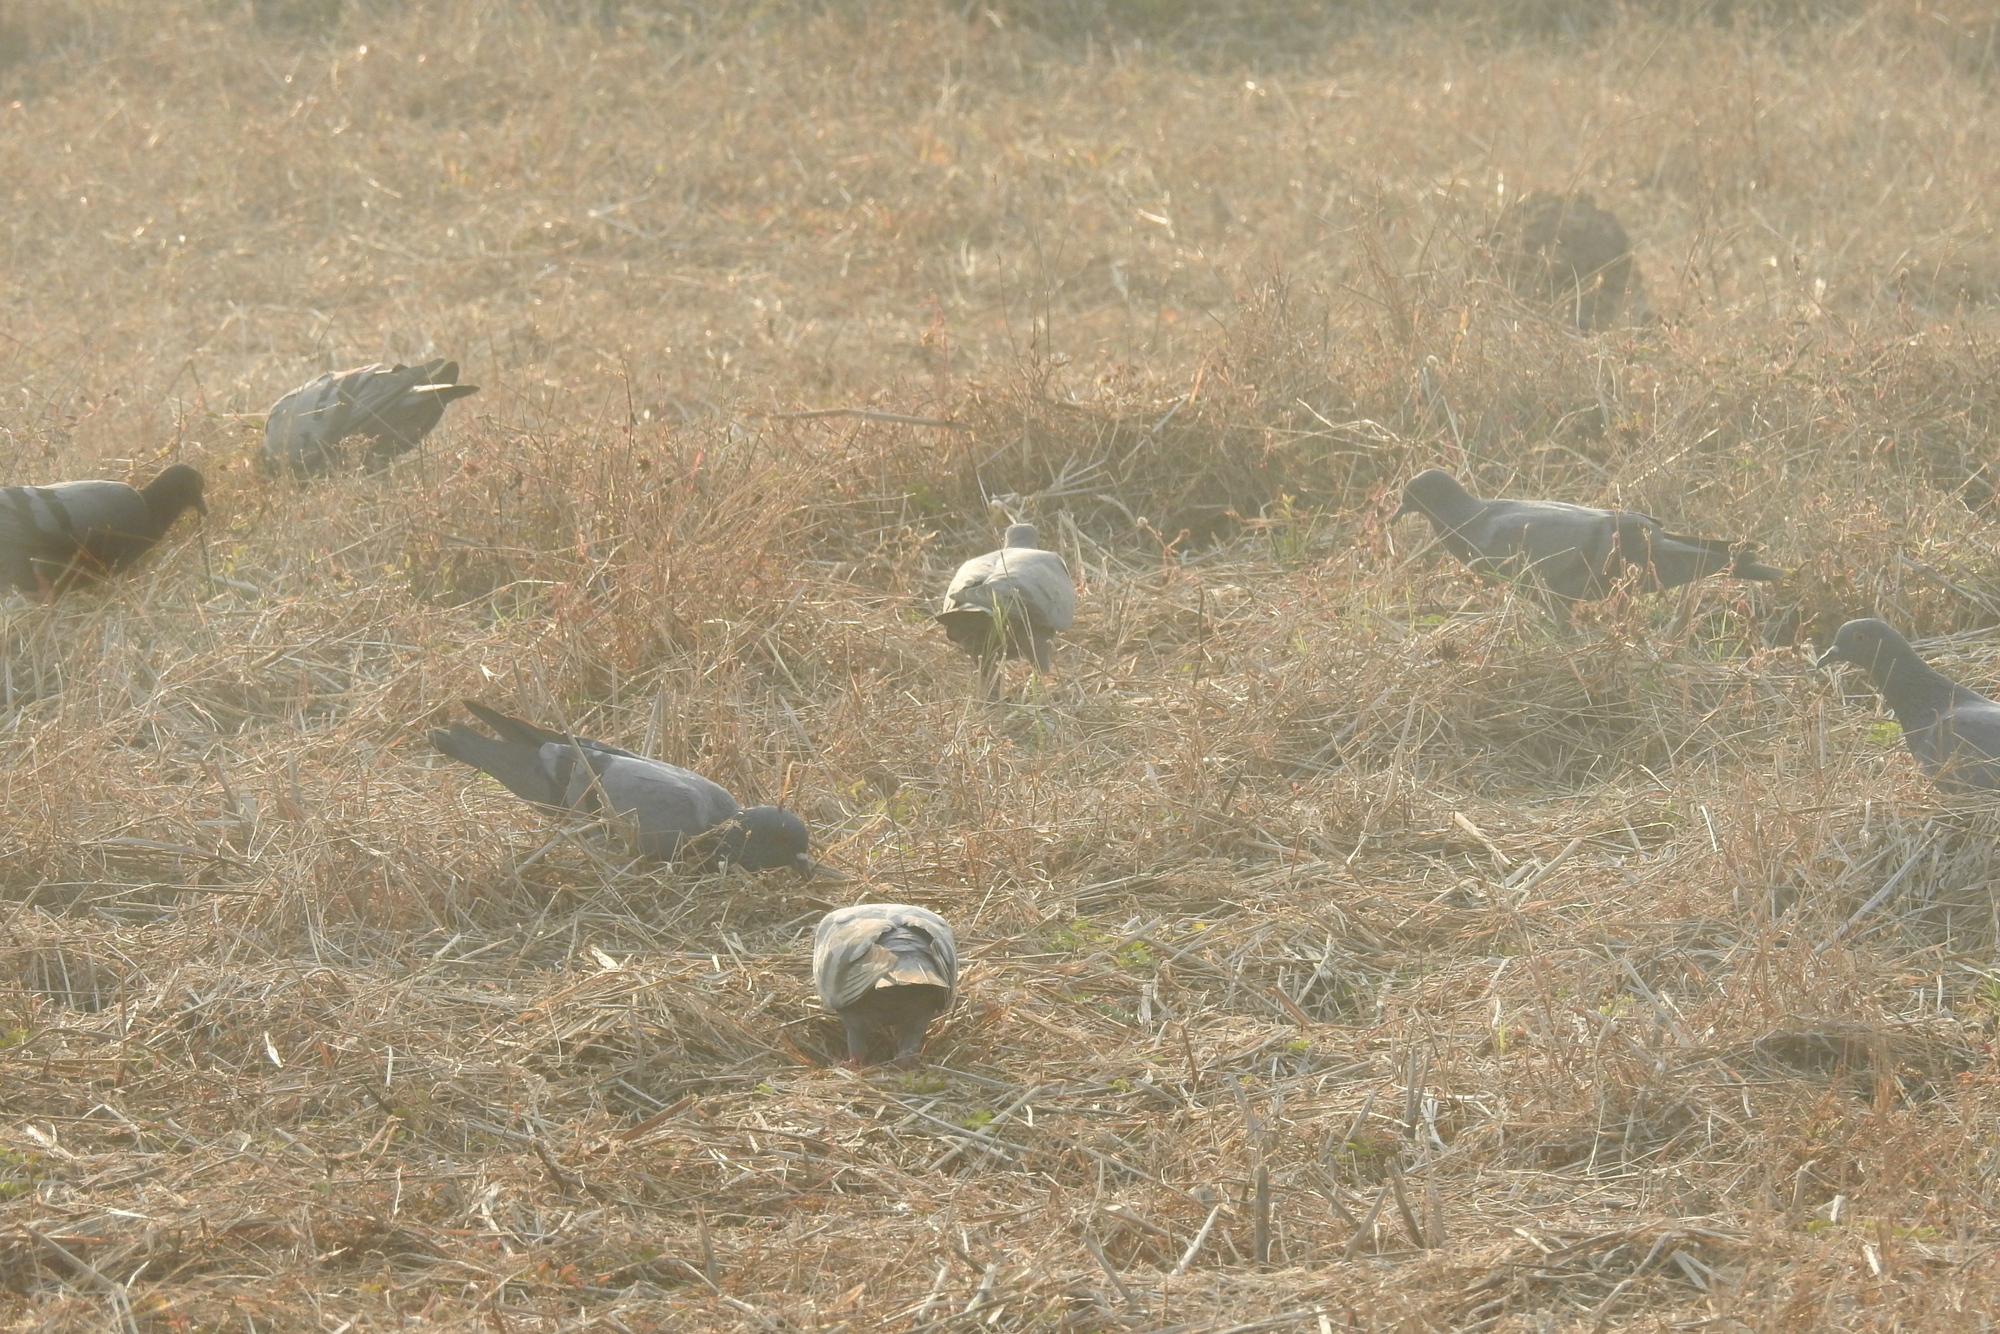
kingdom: Animalia
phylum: Chordata
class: Aves
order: Columbiformes
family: Columbidae
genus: Columba
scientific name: Columba livia
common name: Rock pigeon
